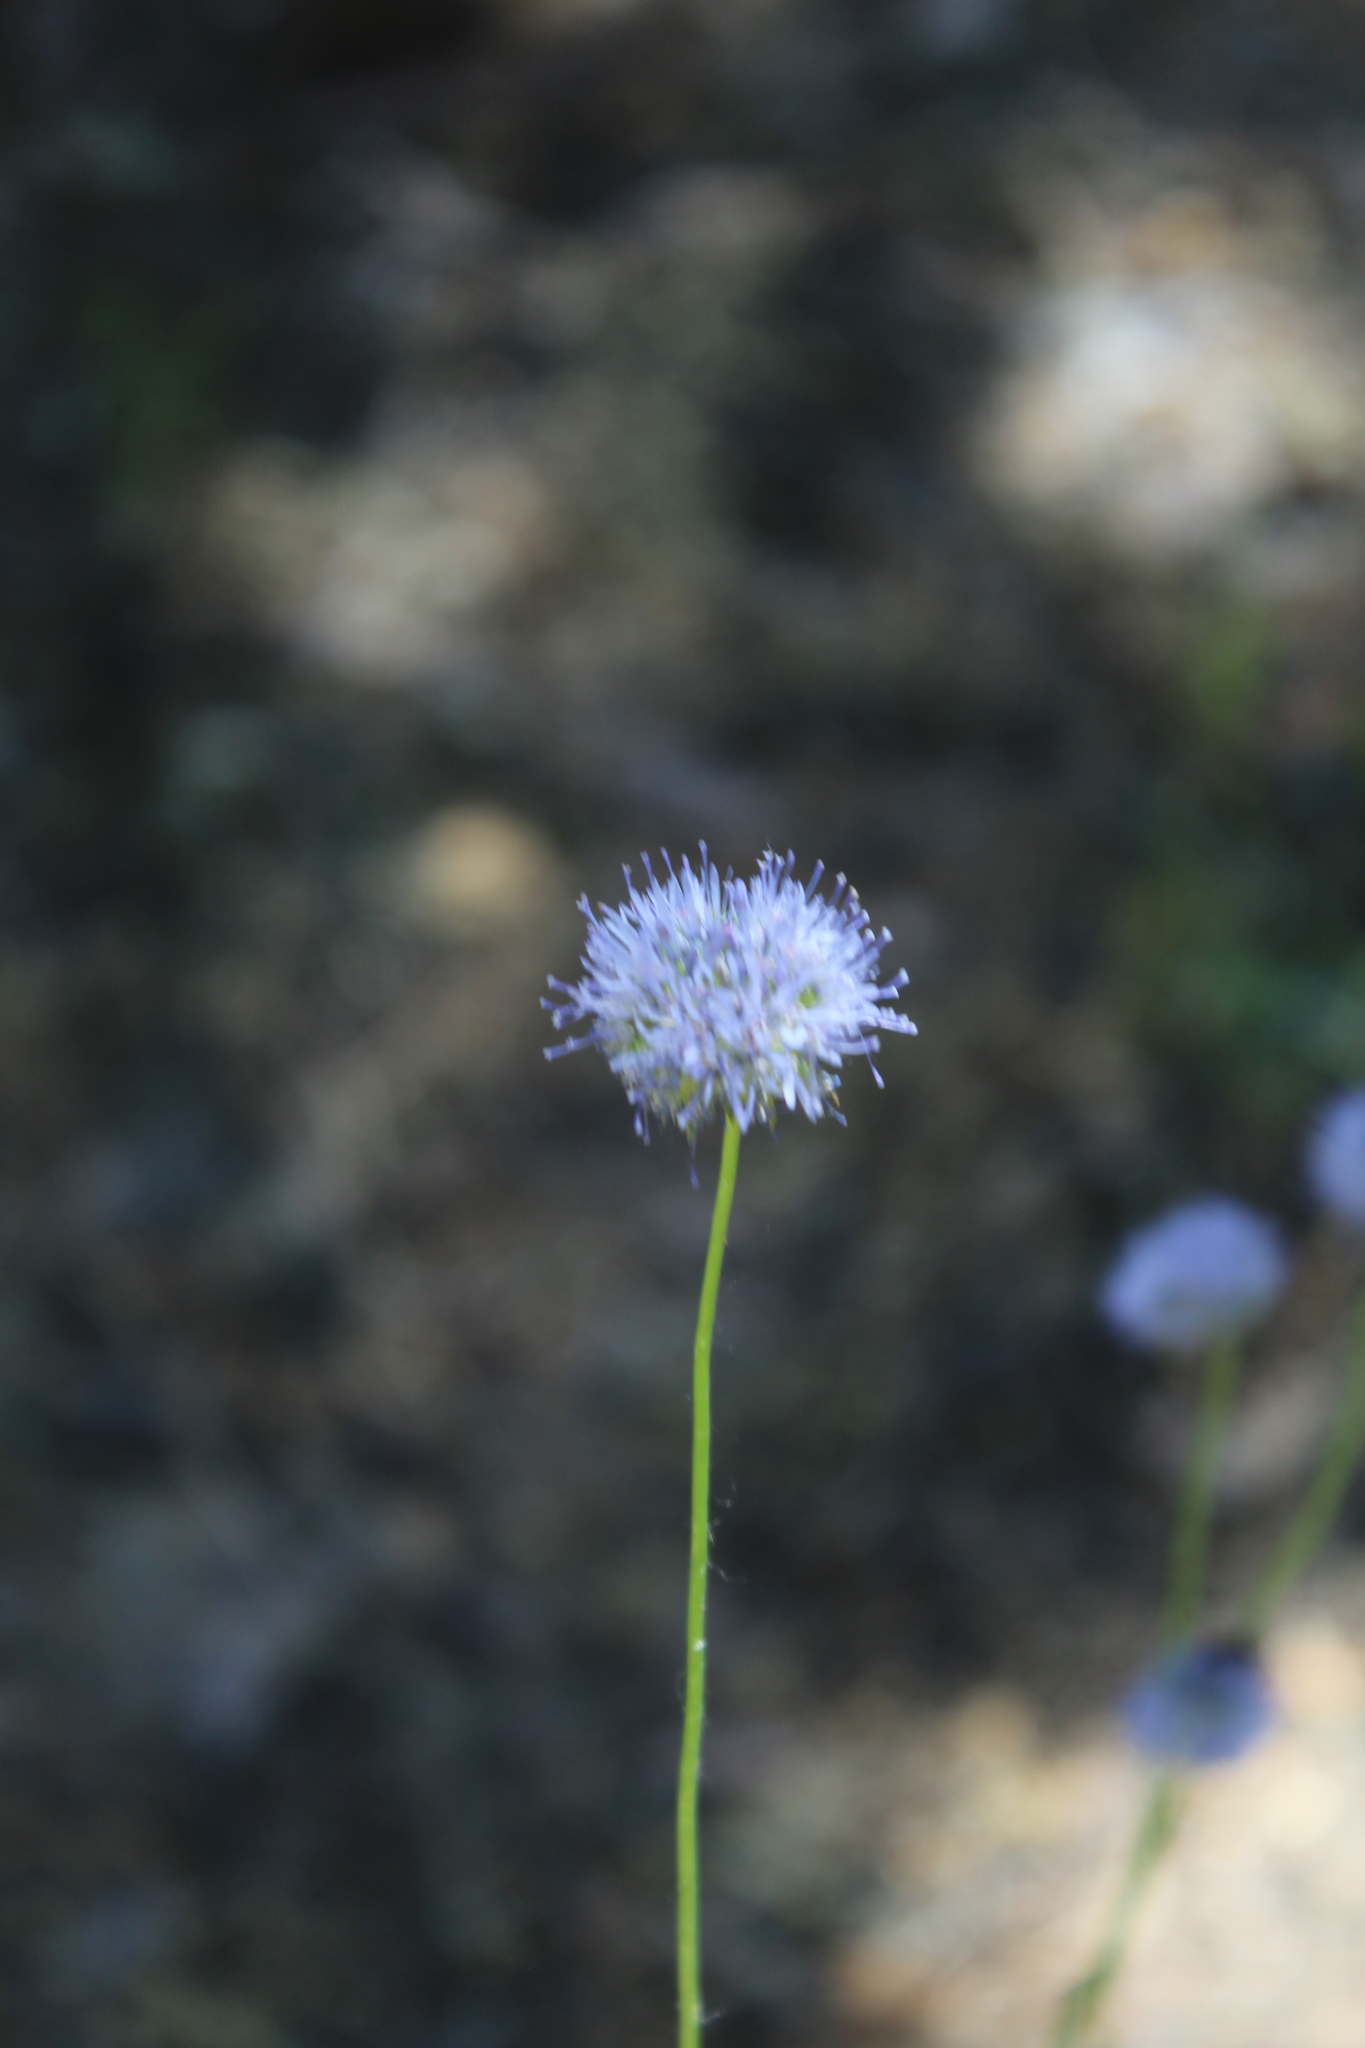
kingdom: Plantae
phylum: Tracheophyta
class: Magnoliopsida
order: Asterales
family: Campanulaceae
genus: Jasione
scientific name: Jasione montana
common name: Sheep's-bit
